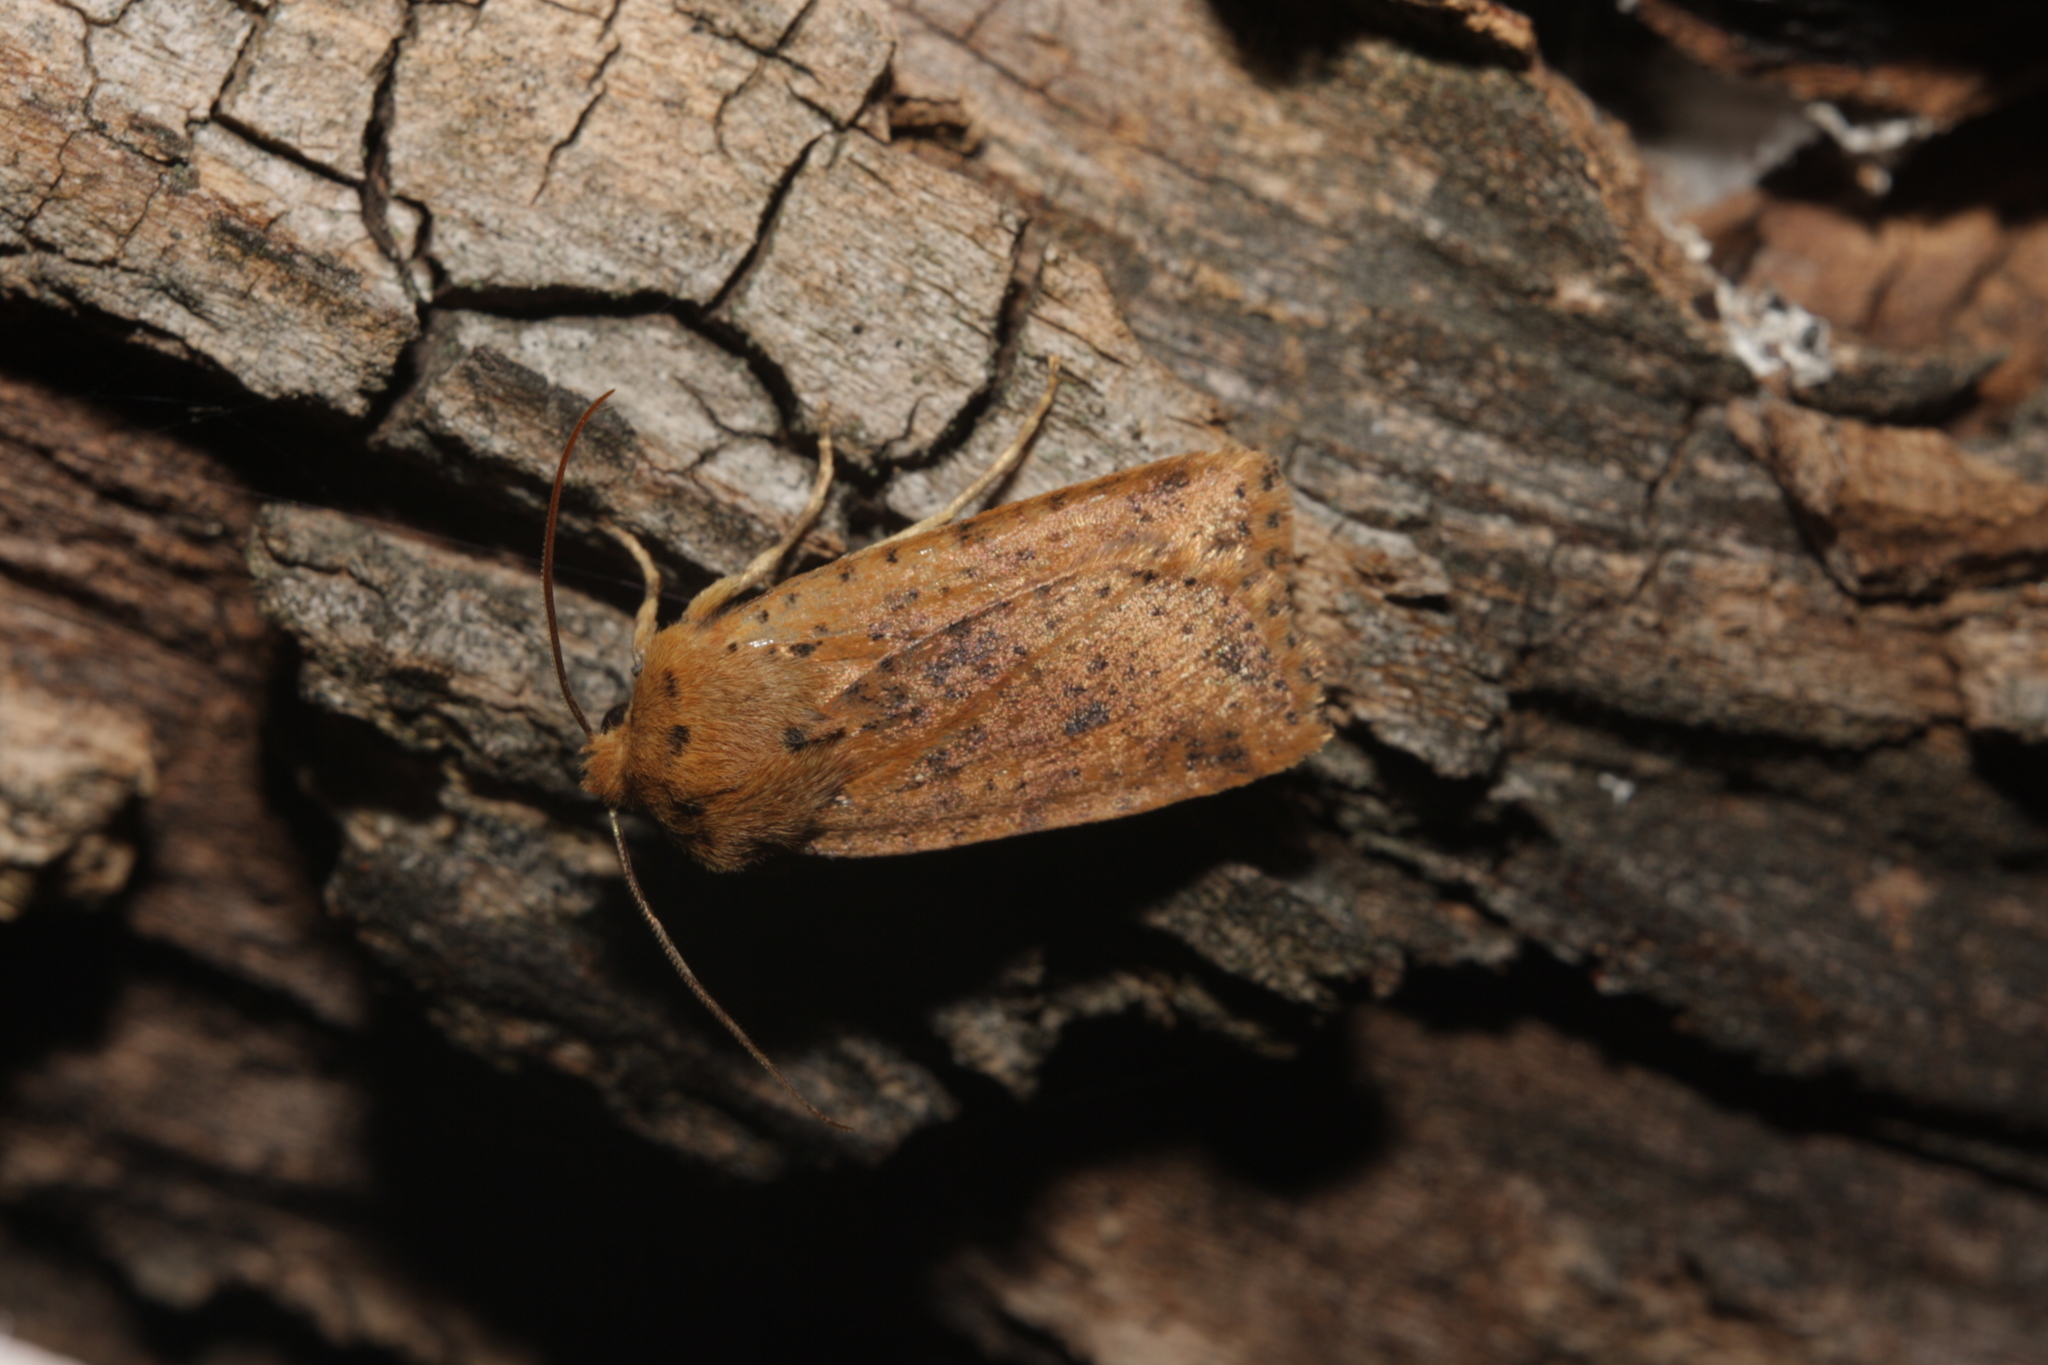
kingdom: Animalia
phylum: Arthropoda
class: Insecta
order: Lepidoptera
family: Noctuidae
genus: Conistra
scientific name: Conistra rubiginea
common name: Dotted chestnut
